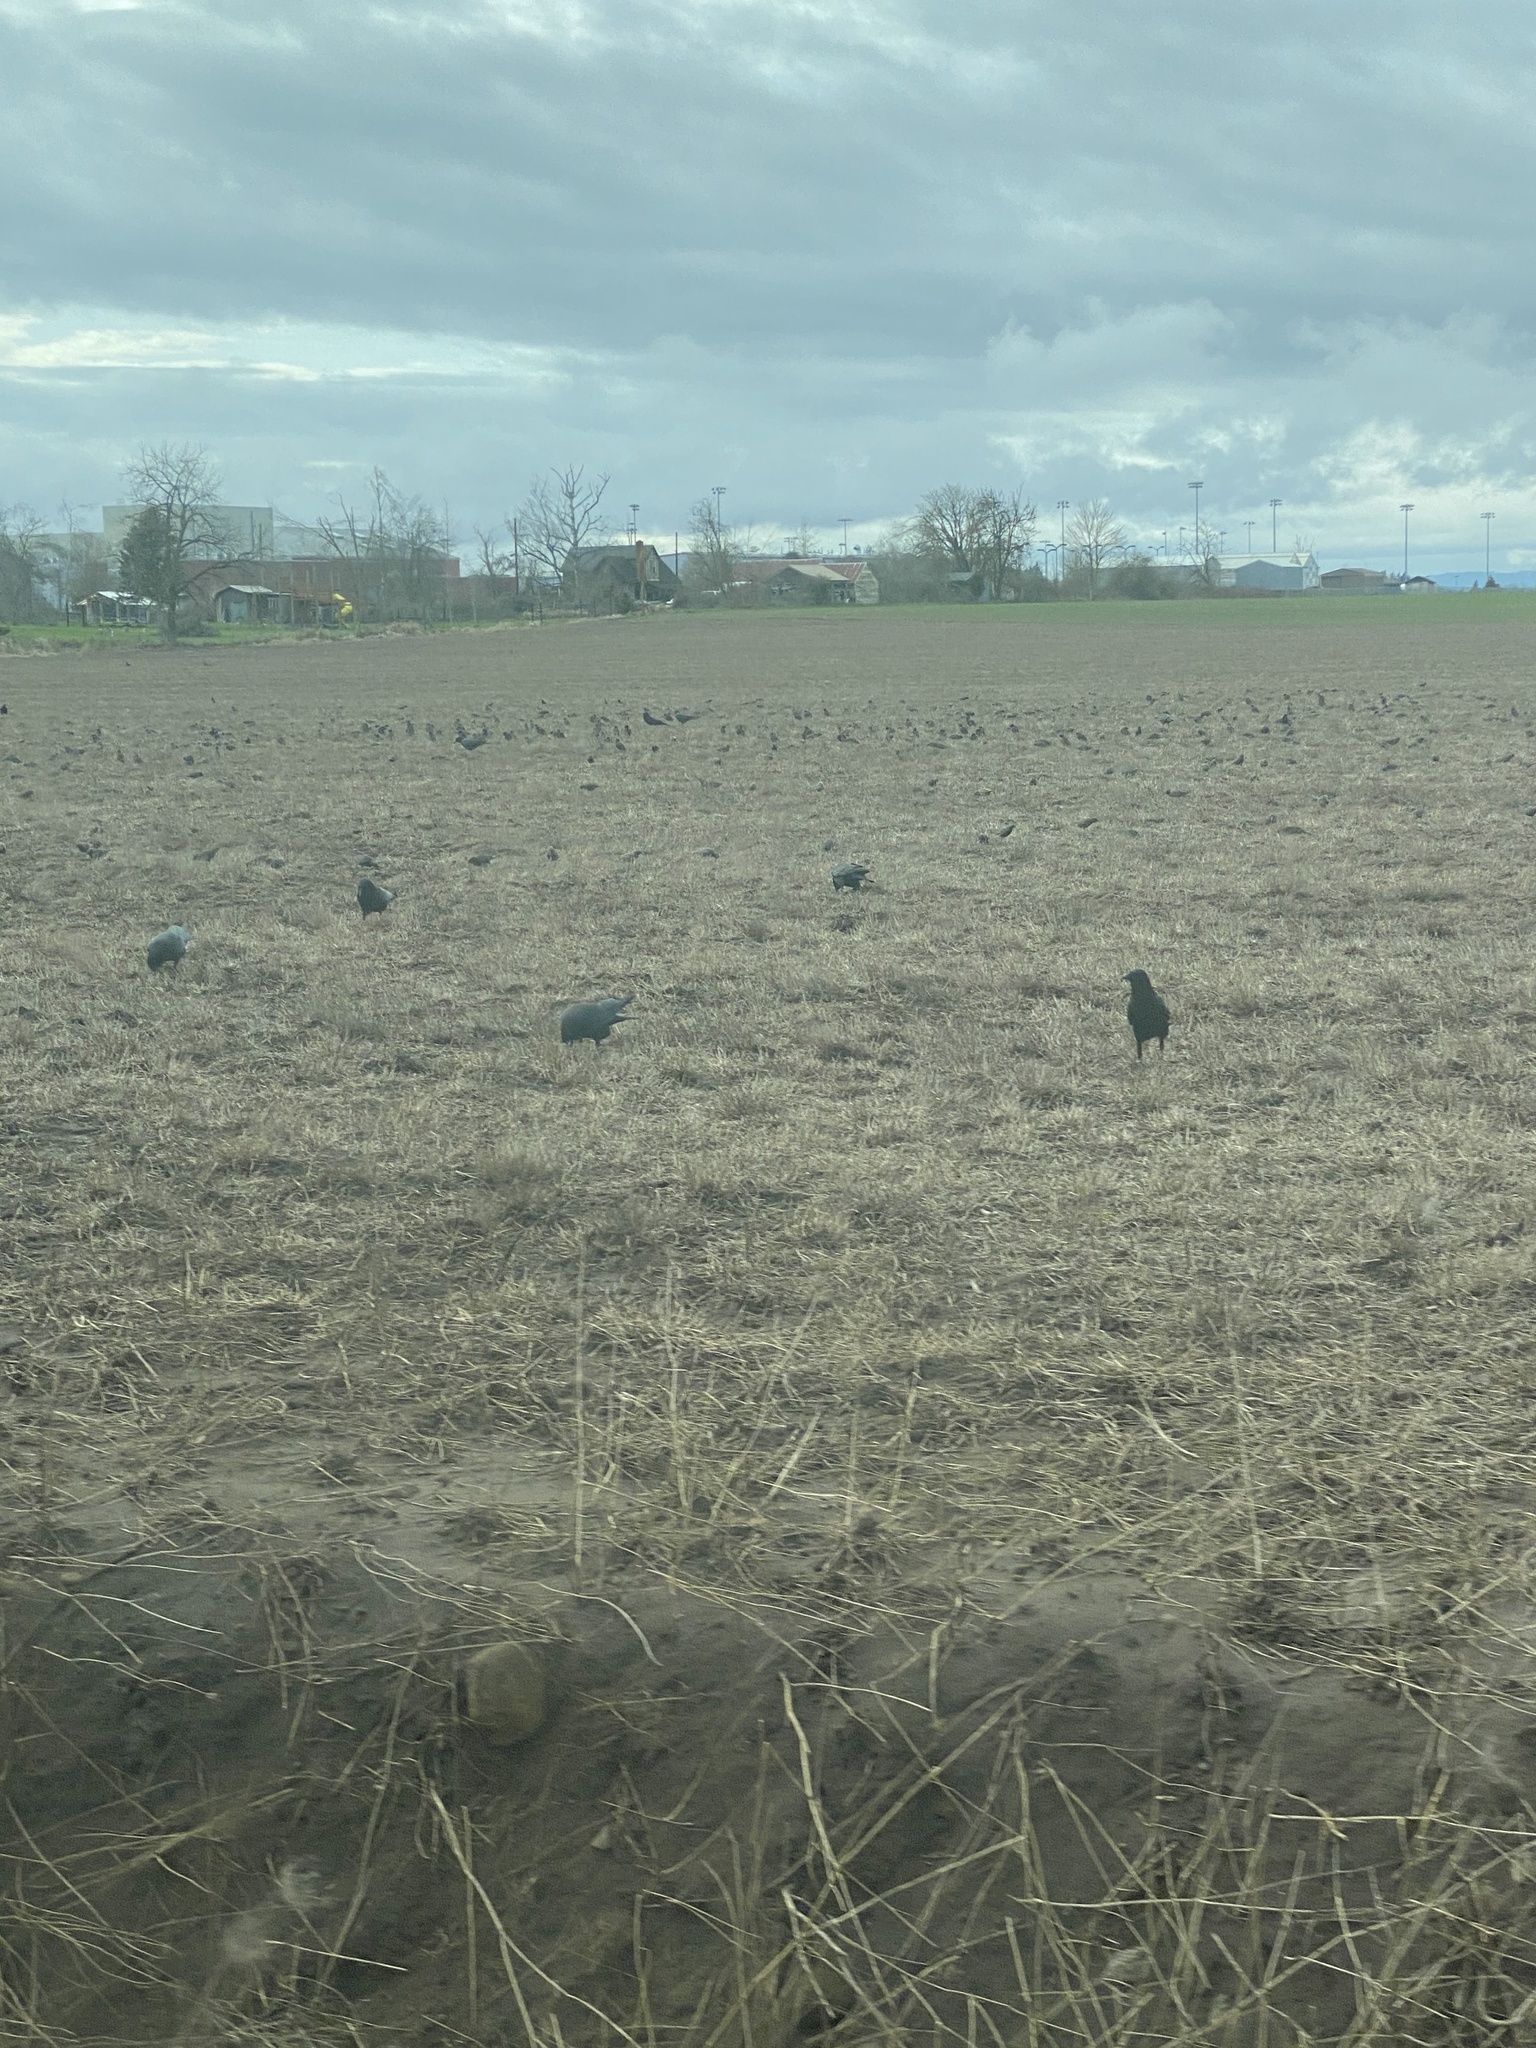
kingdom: Animalia
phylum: Chordata
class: Aves
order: Passeriformes
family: Corvidae
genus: Corvus
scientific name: Corvus brachyrhynchos
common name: American crow
